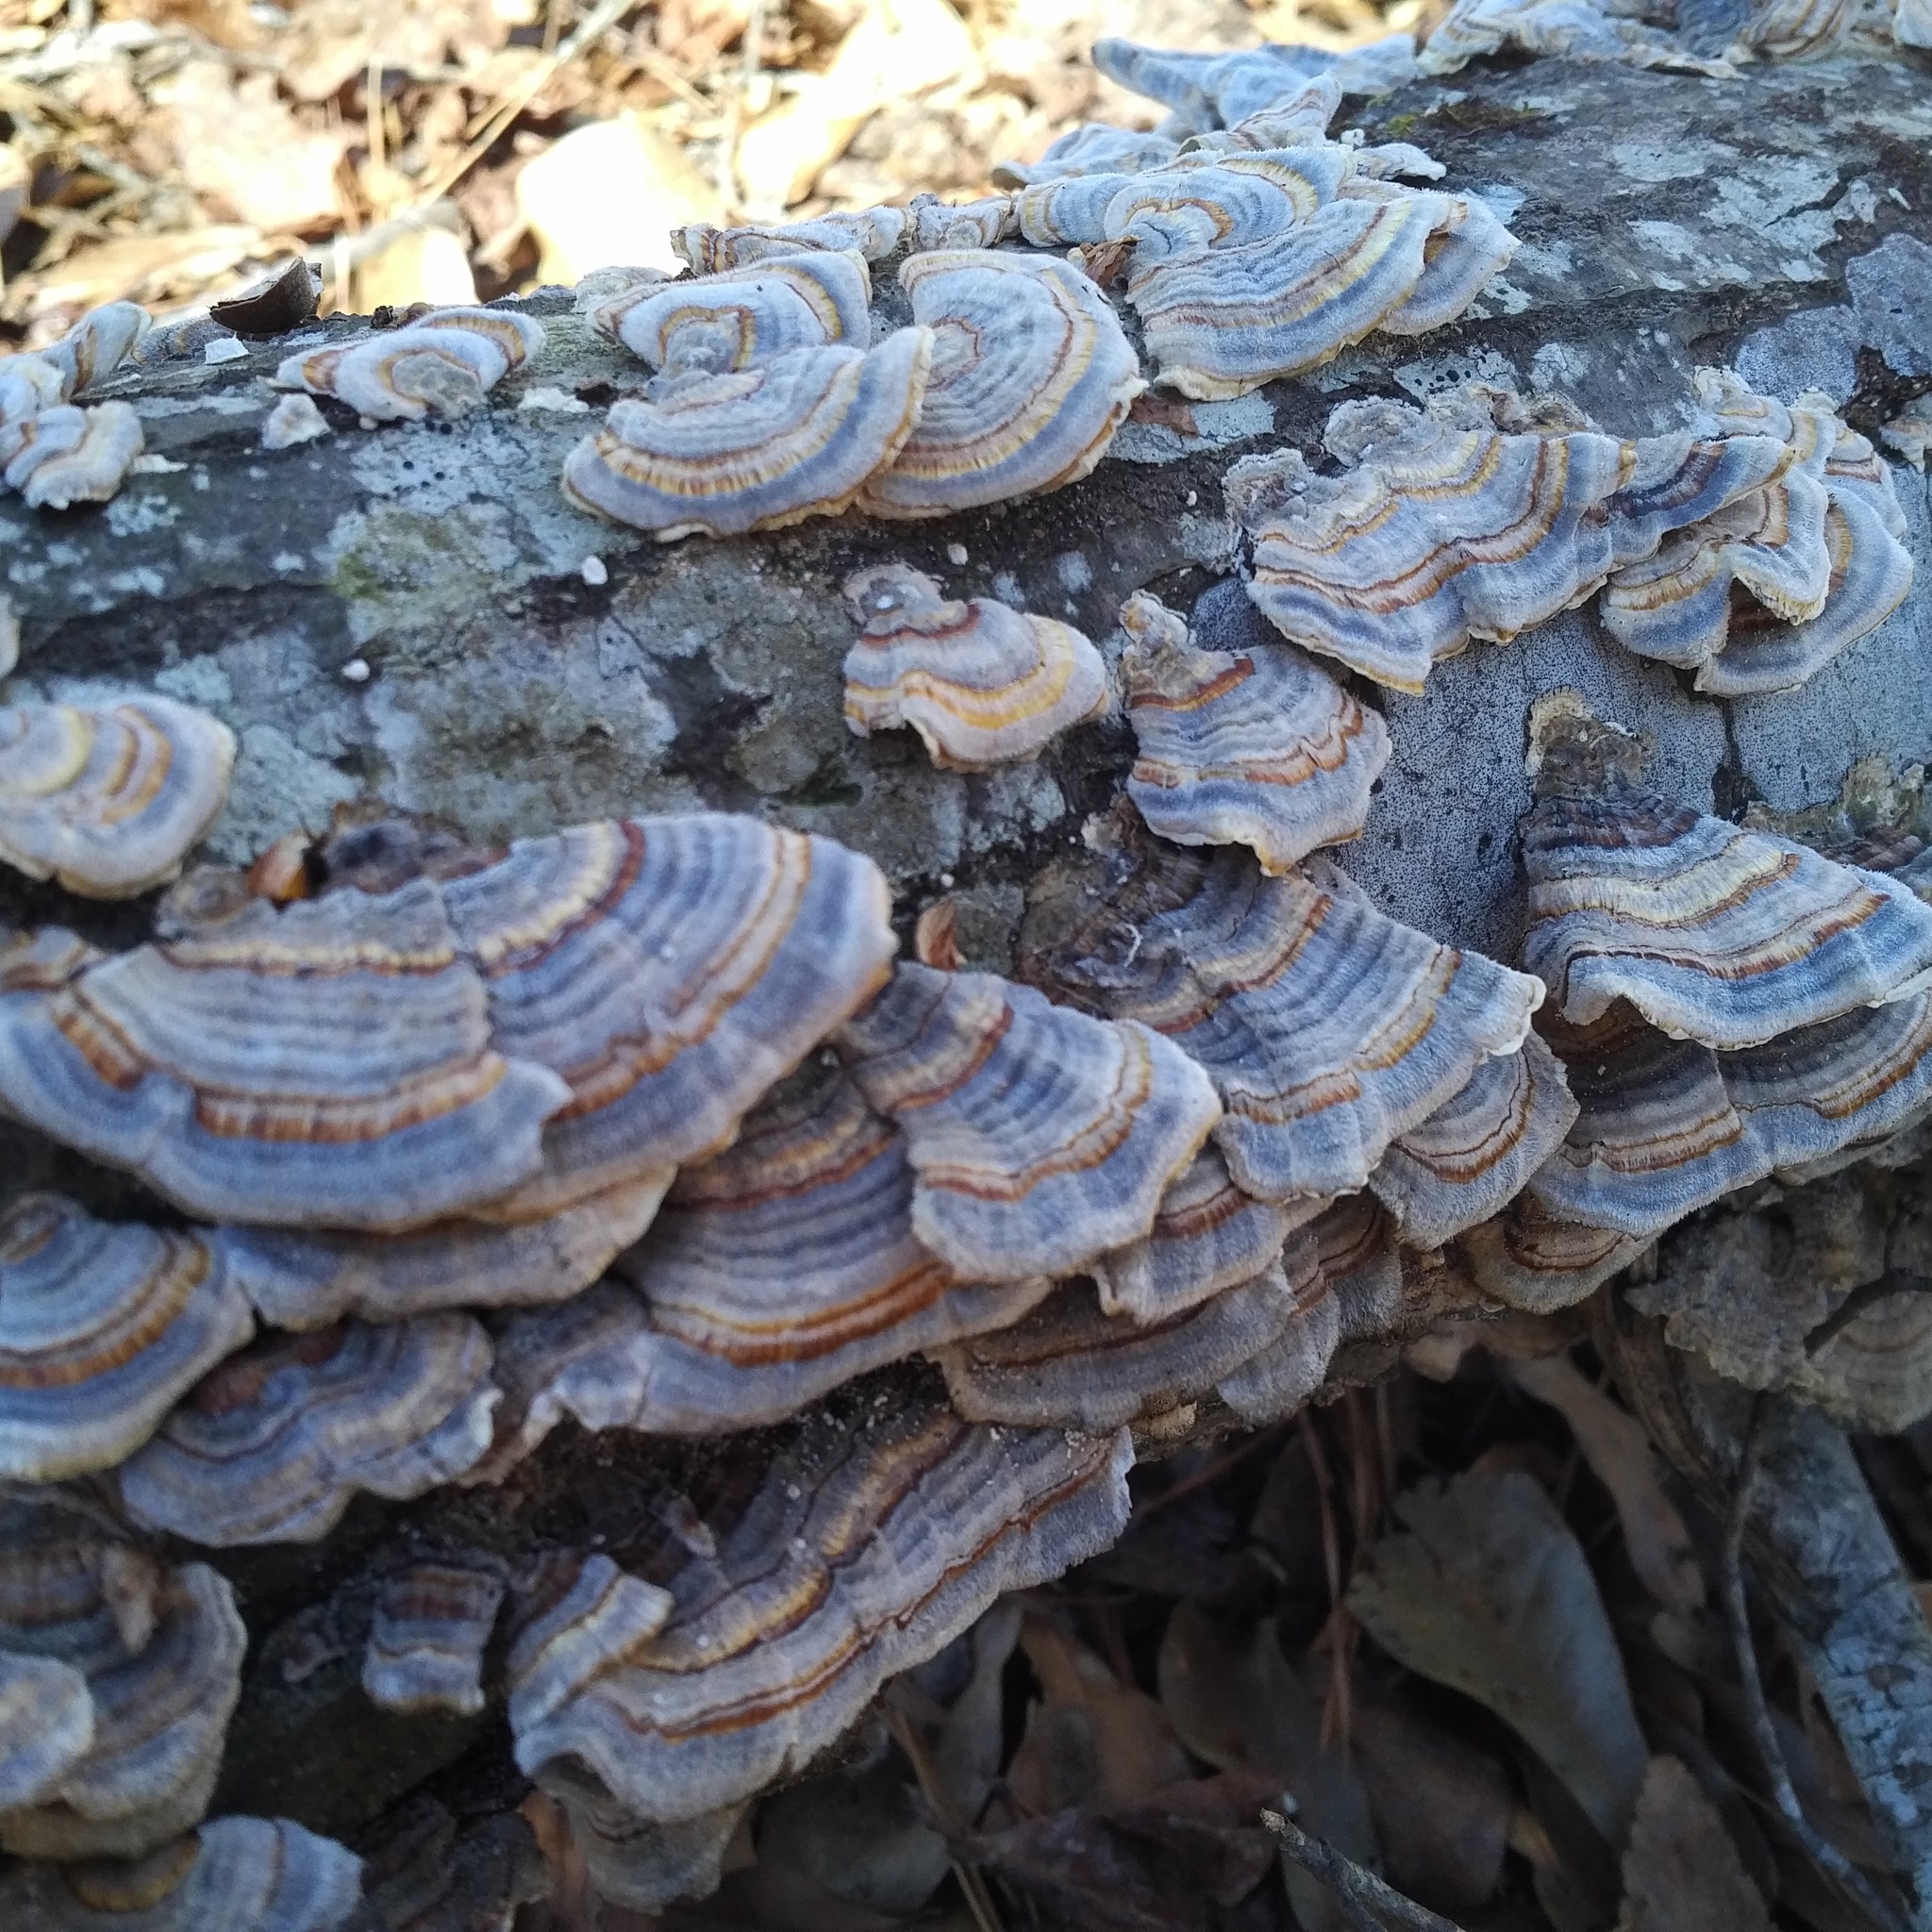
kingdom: Fungi
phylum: Basidiomycota
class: Agaricomycetes
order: Polyporales
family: Polyporaceae
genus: Trametes
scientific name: Trametes versicolor
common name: Turkeytail
